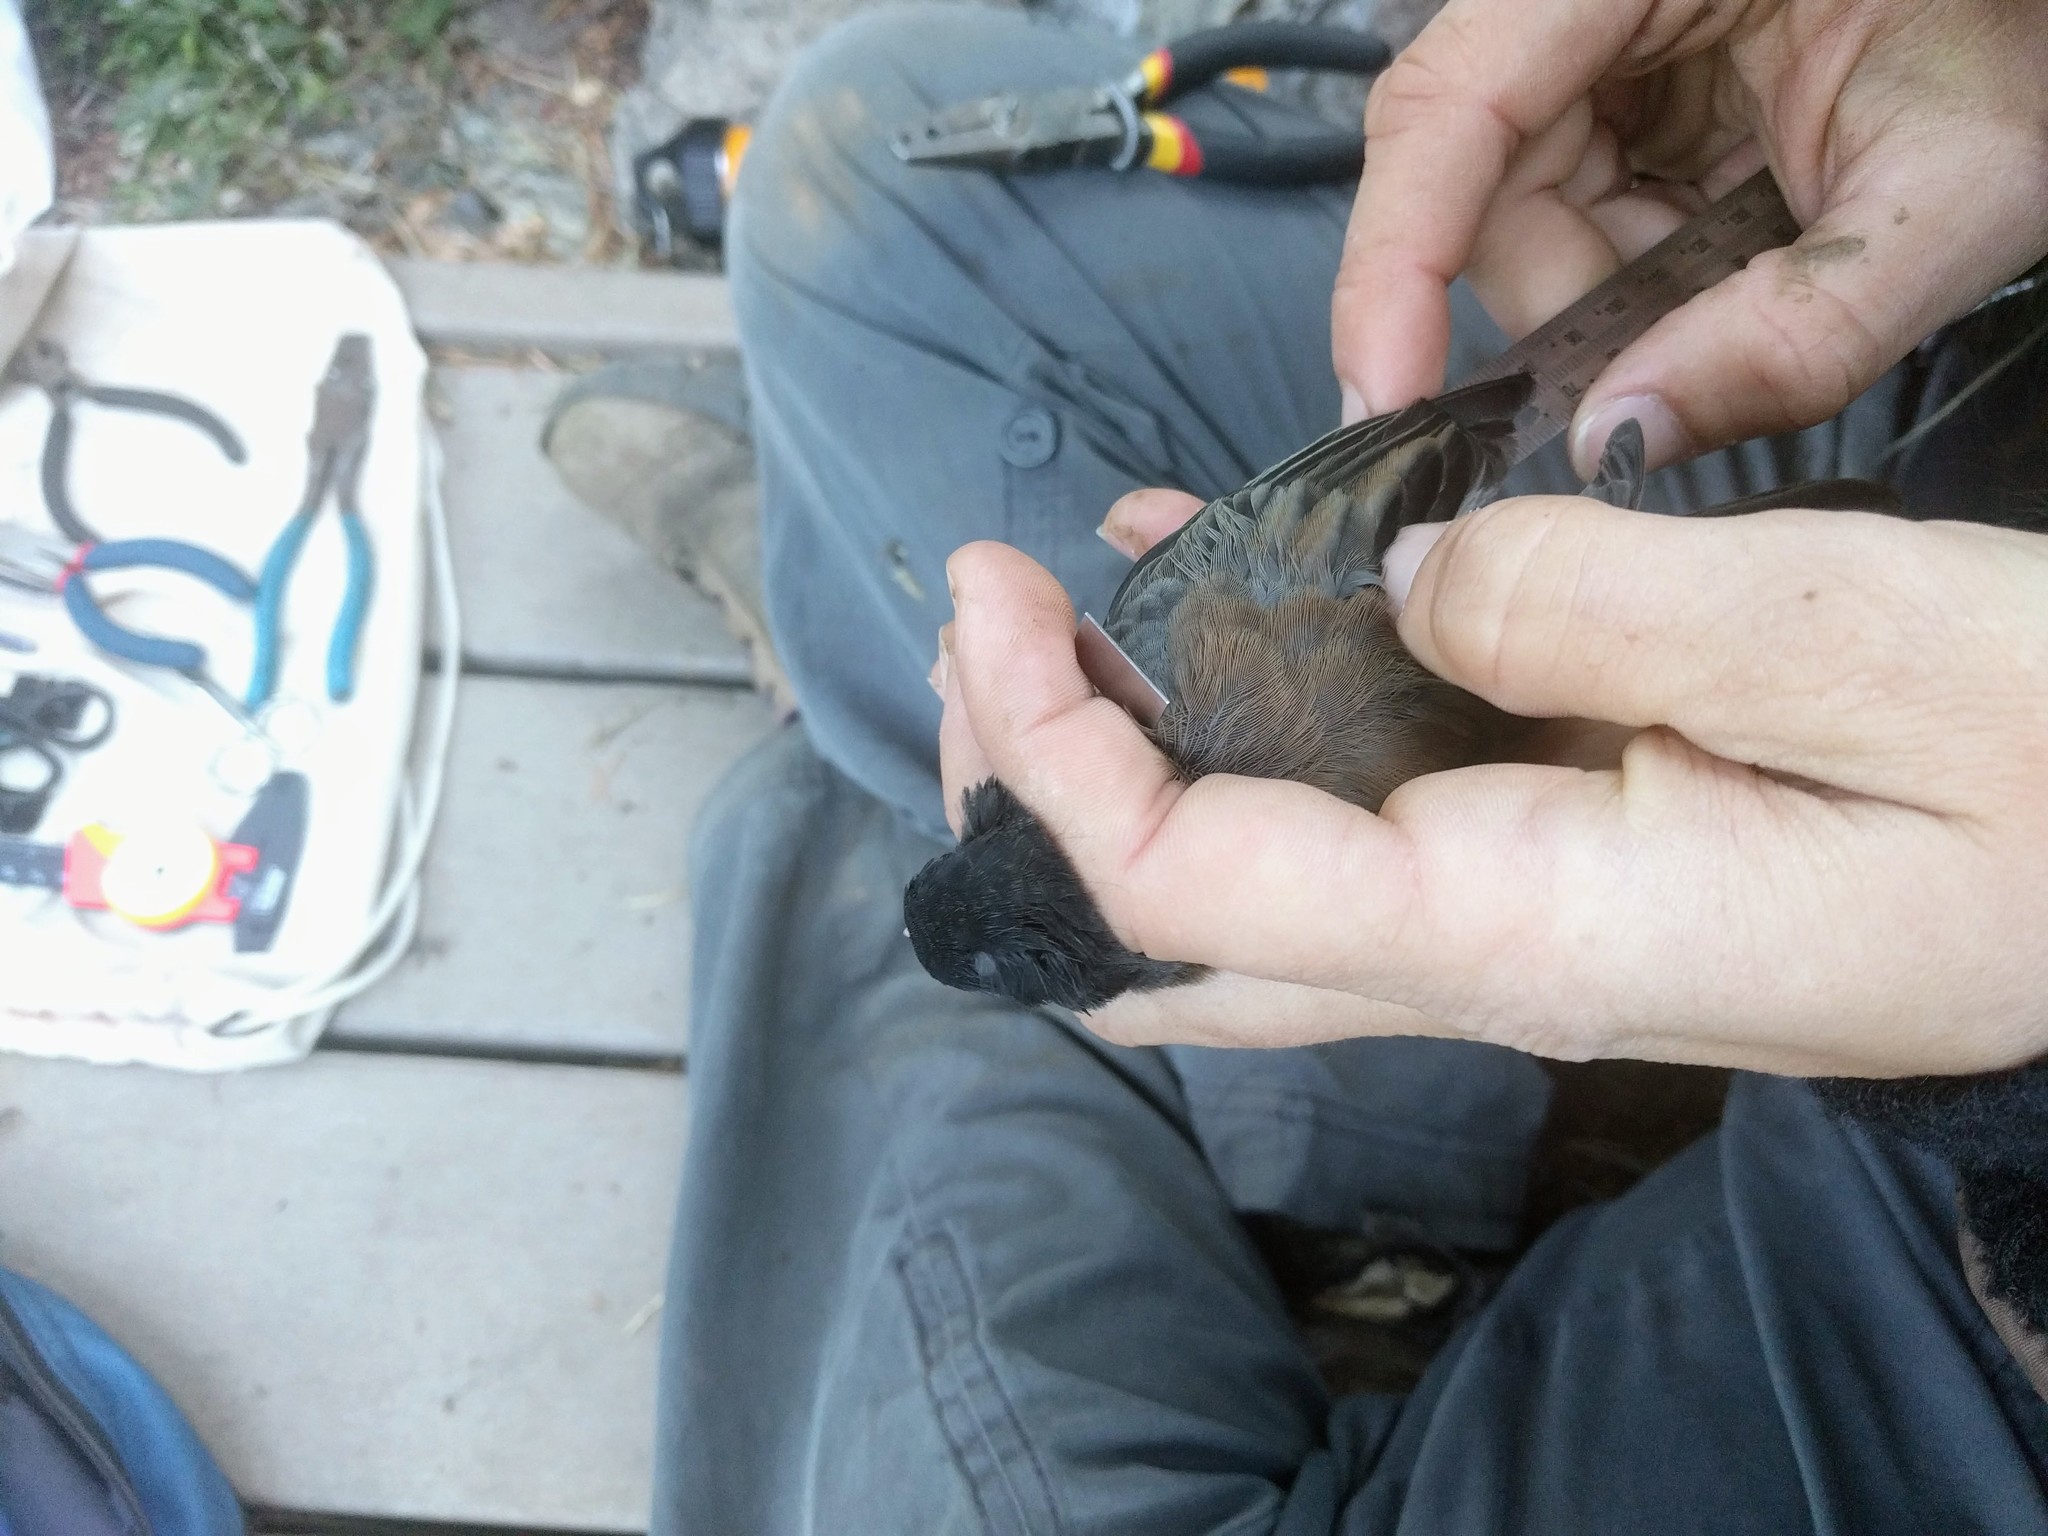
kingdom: Animalia
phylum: Chordata
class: Aves
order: Passeriformes
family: Passerellidae
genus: Junco
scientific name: Junco hyemalis
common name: Dark-eyed junco
